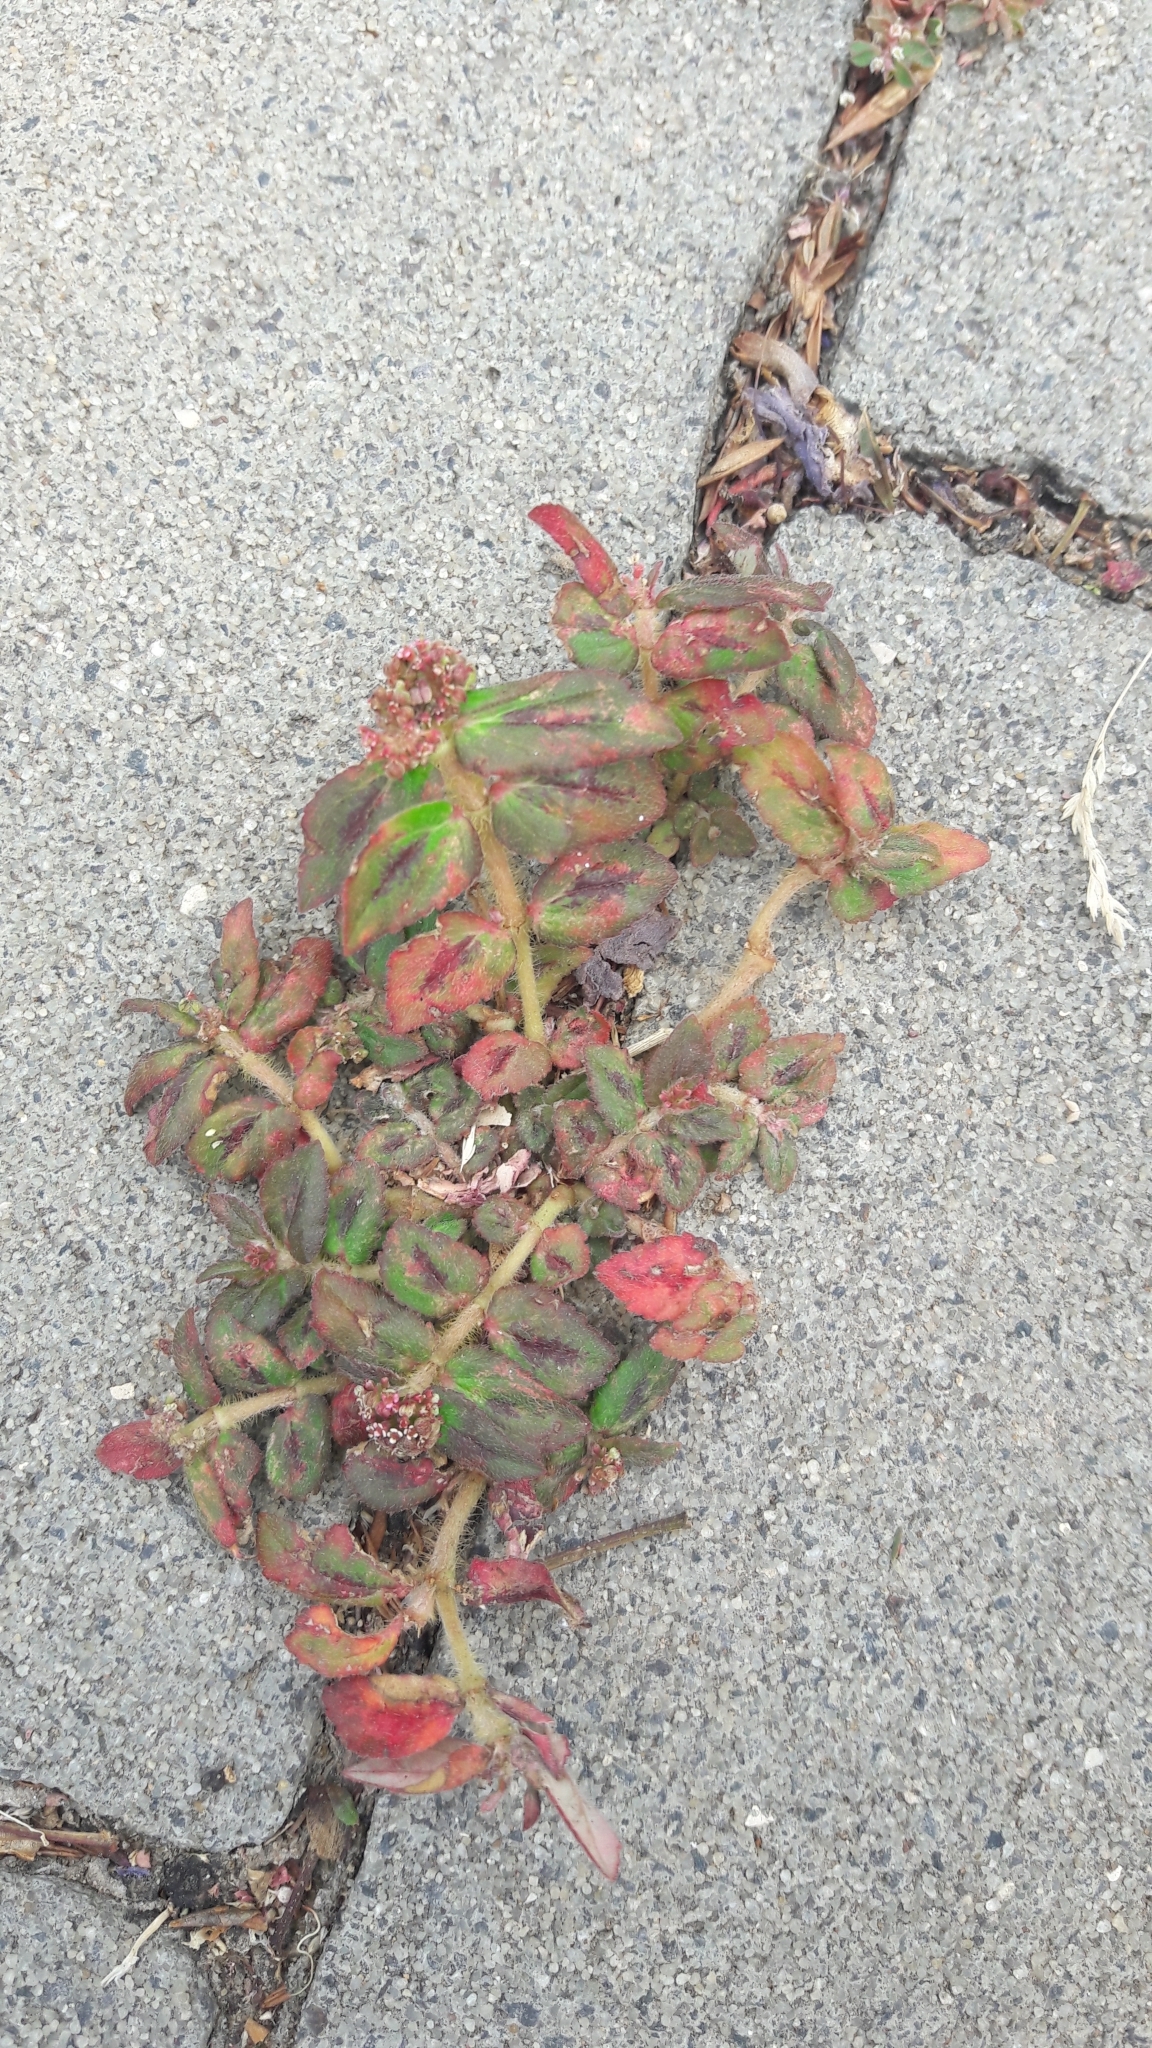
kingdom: Plantae
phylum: Tracheophyta
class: Magnoliopsida
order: Malpighiales
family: Euphorbiaceae
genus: Euphorbia
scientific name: Euphorbia hirta
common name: Pillpod sandmat
